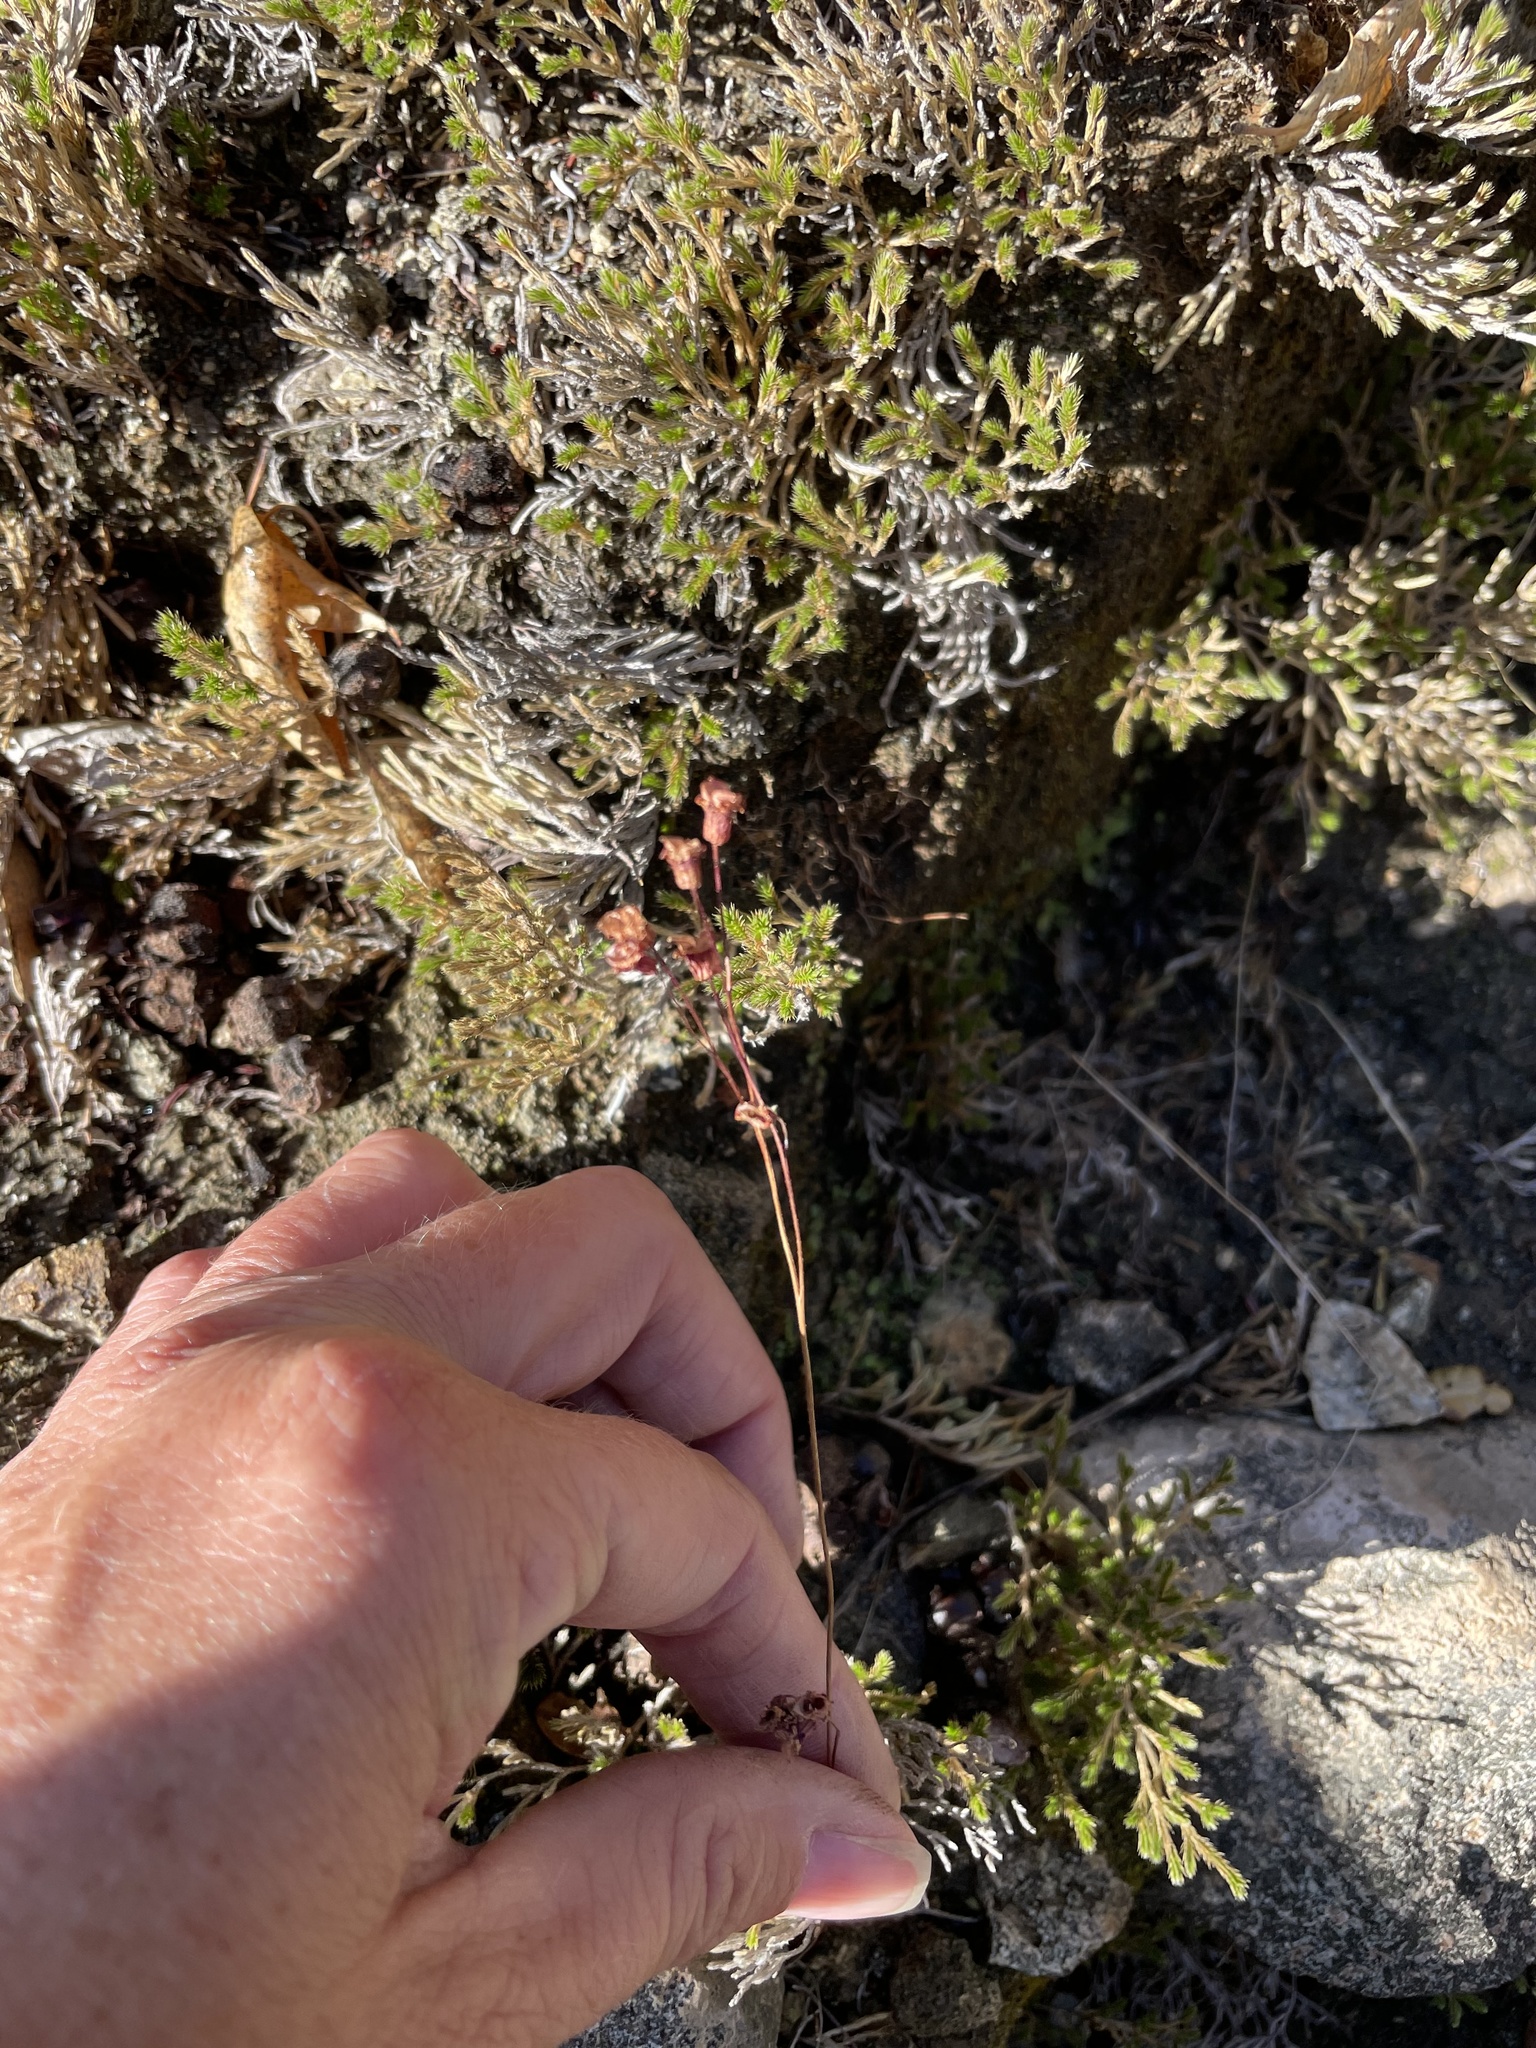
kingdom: Plantae
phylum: Tracheophyta
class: Magnoliopsida
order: Saxifragales
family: Saxifragaceae
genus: Jepsonia
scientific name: Jepsonia parryi
